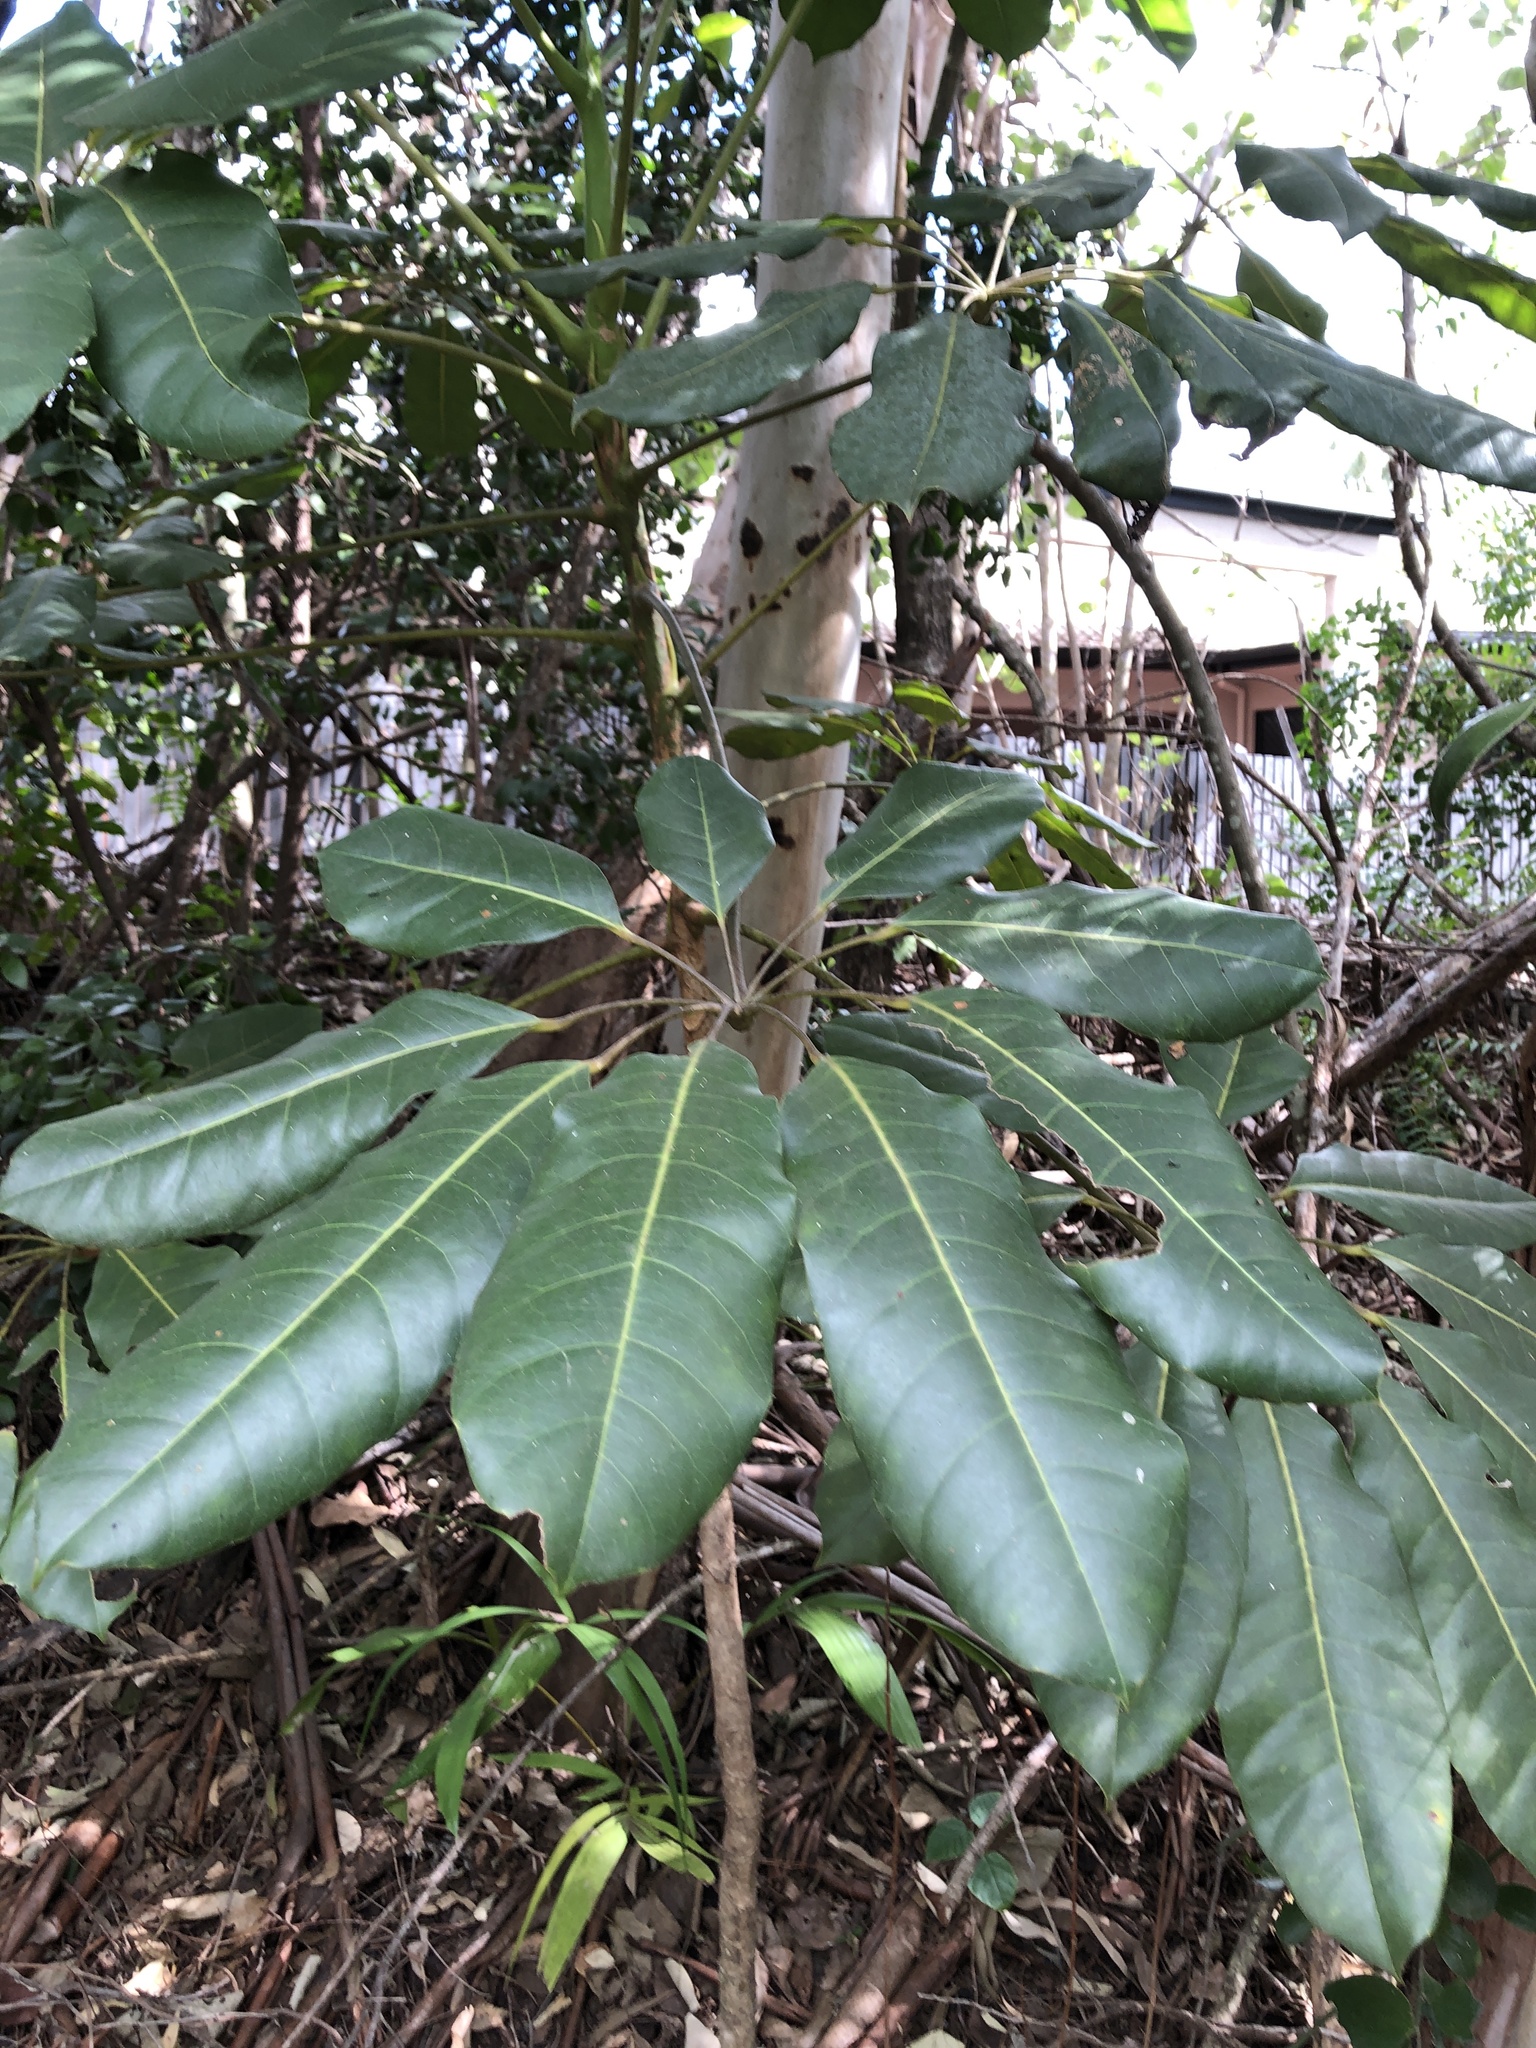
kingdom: Plantae
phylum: Tracheophyta
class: Magnoliopsida
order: Apiales
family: Araliaceae
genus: Heptapleurum
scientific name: Heptapleurum actinophyllum
